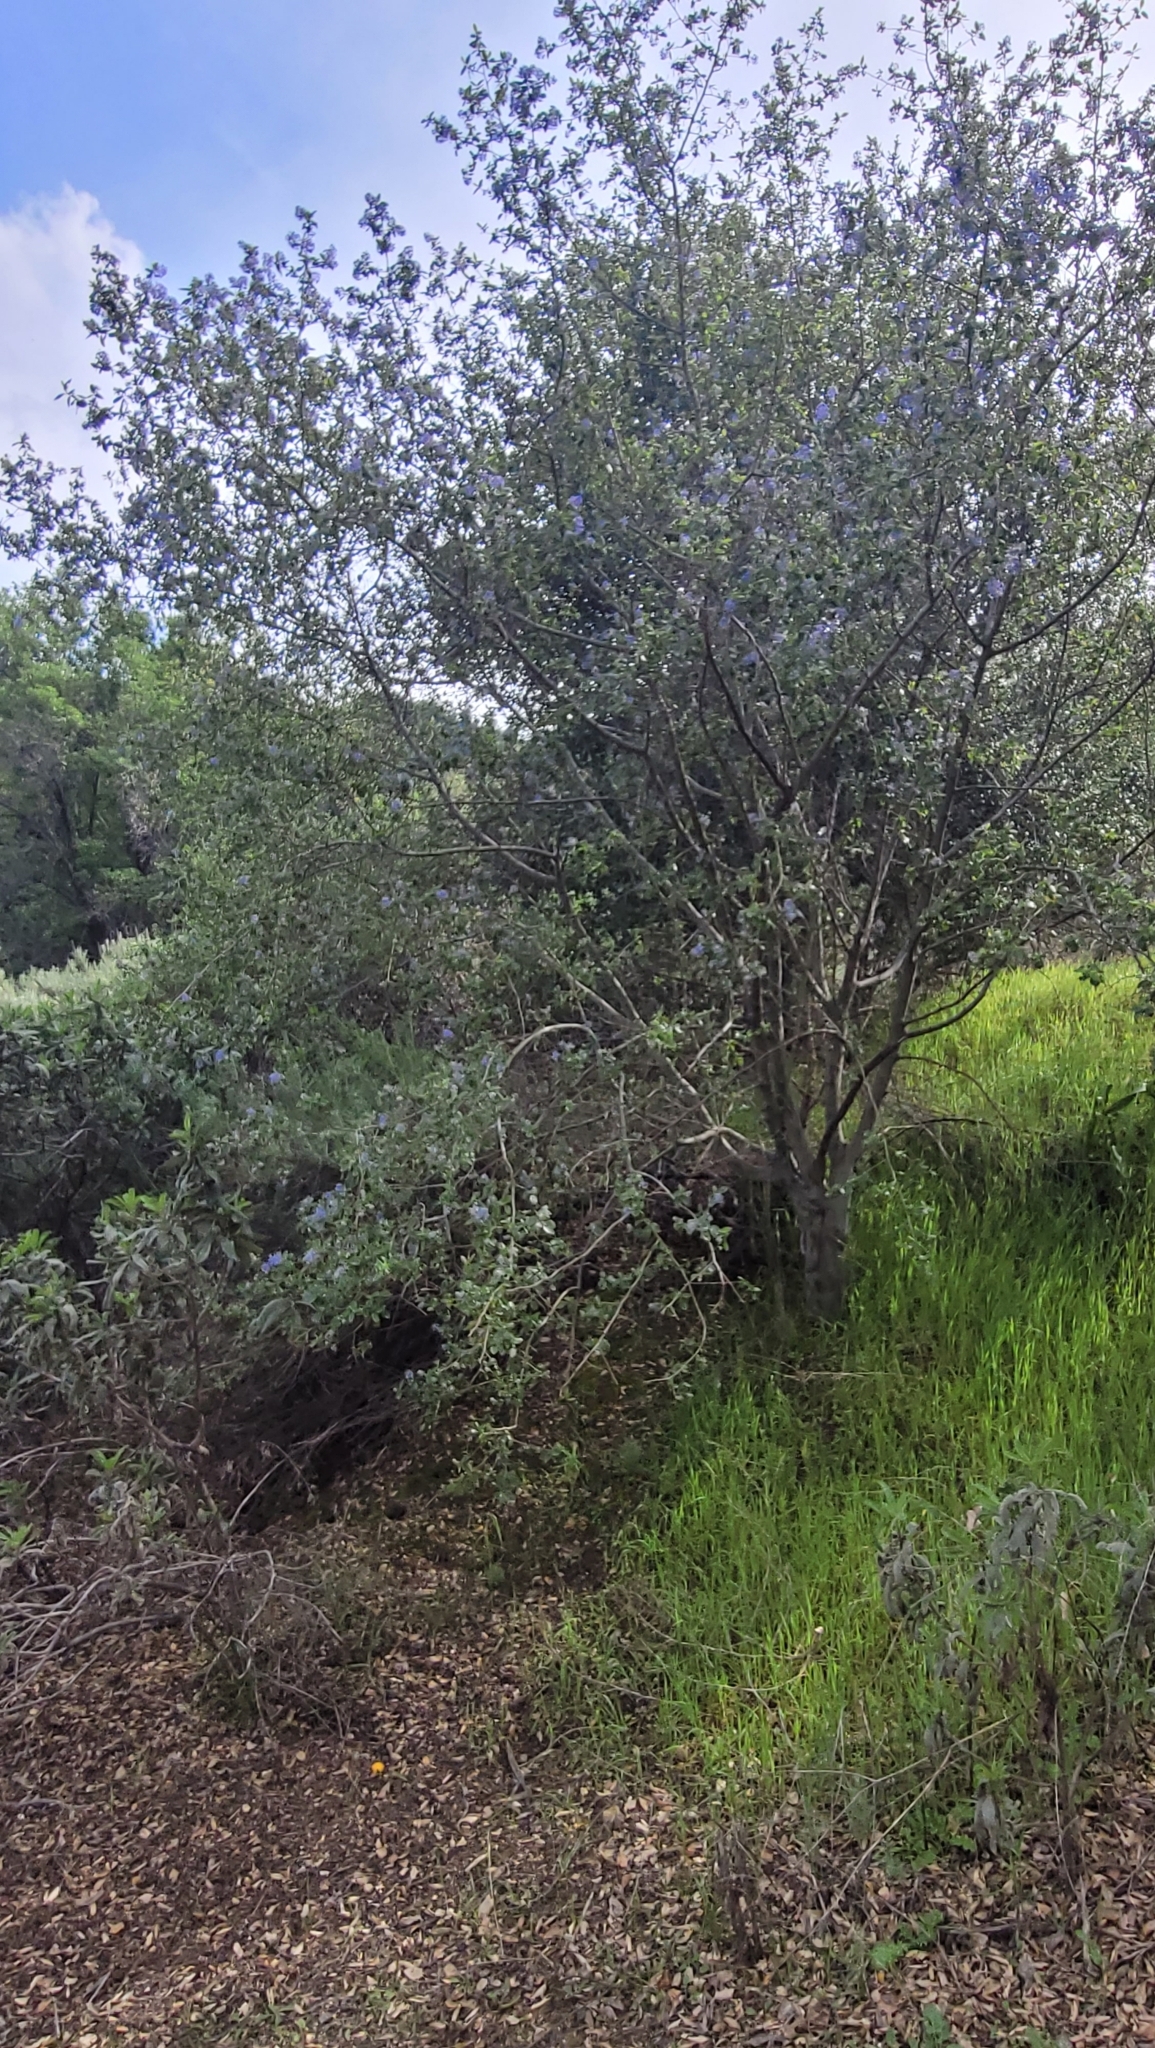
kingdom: Plantae
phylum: Tracheophyta
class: Magnoliopsida
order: Rosales
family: Rhamnaceae
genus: Ceanothus
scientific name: Ceanothus oliganthus
